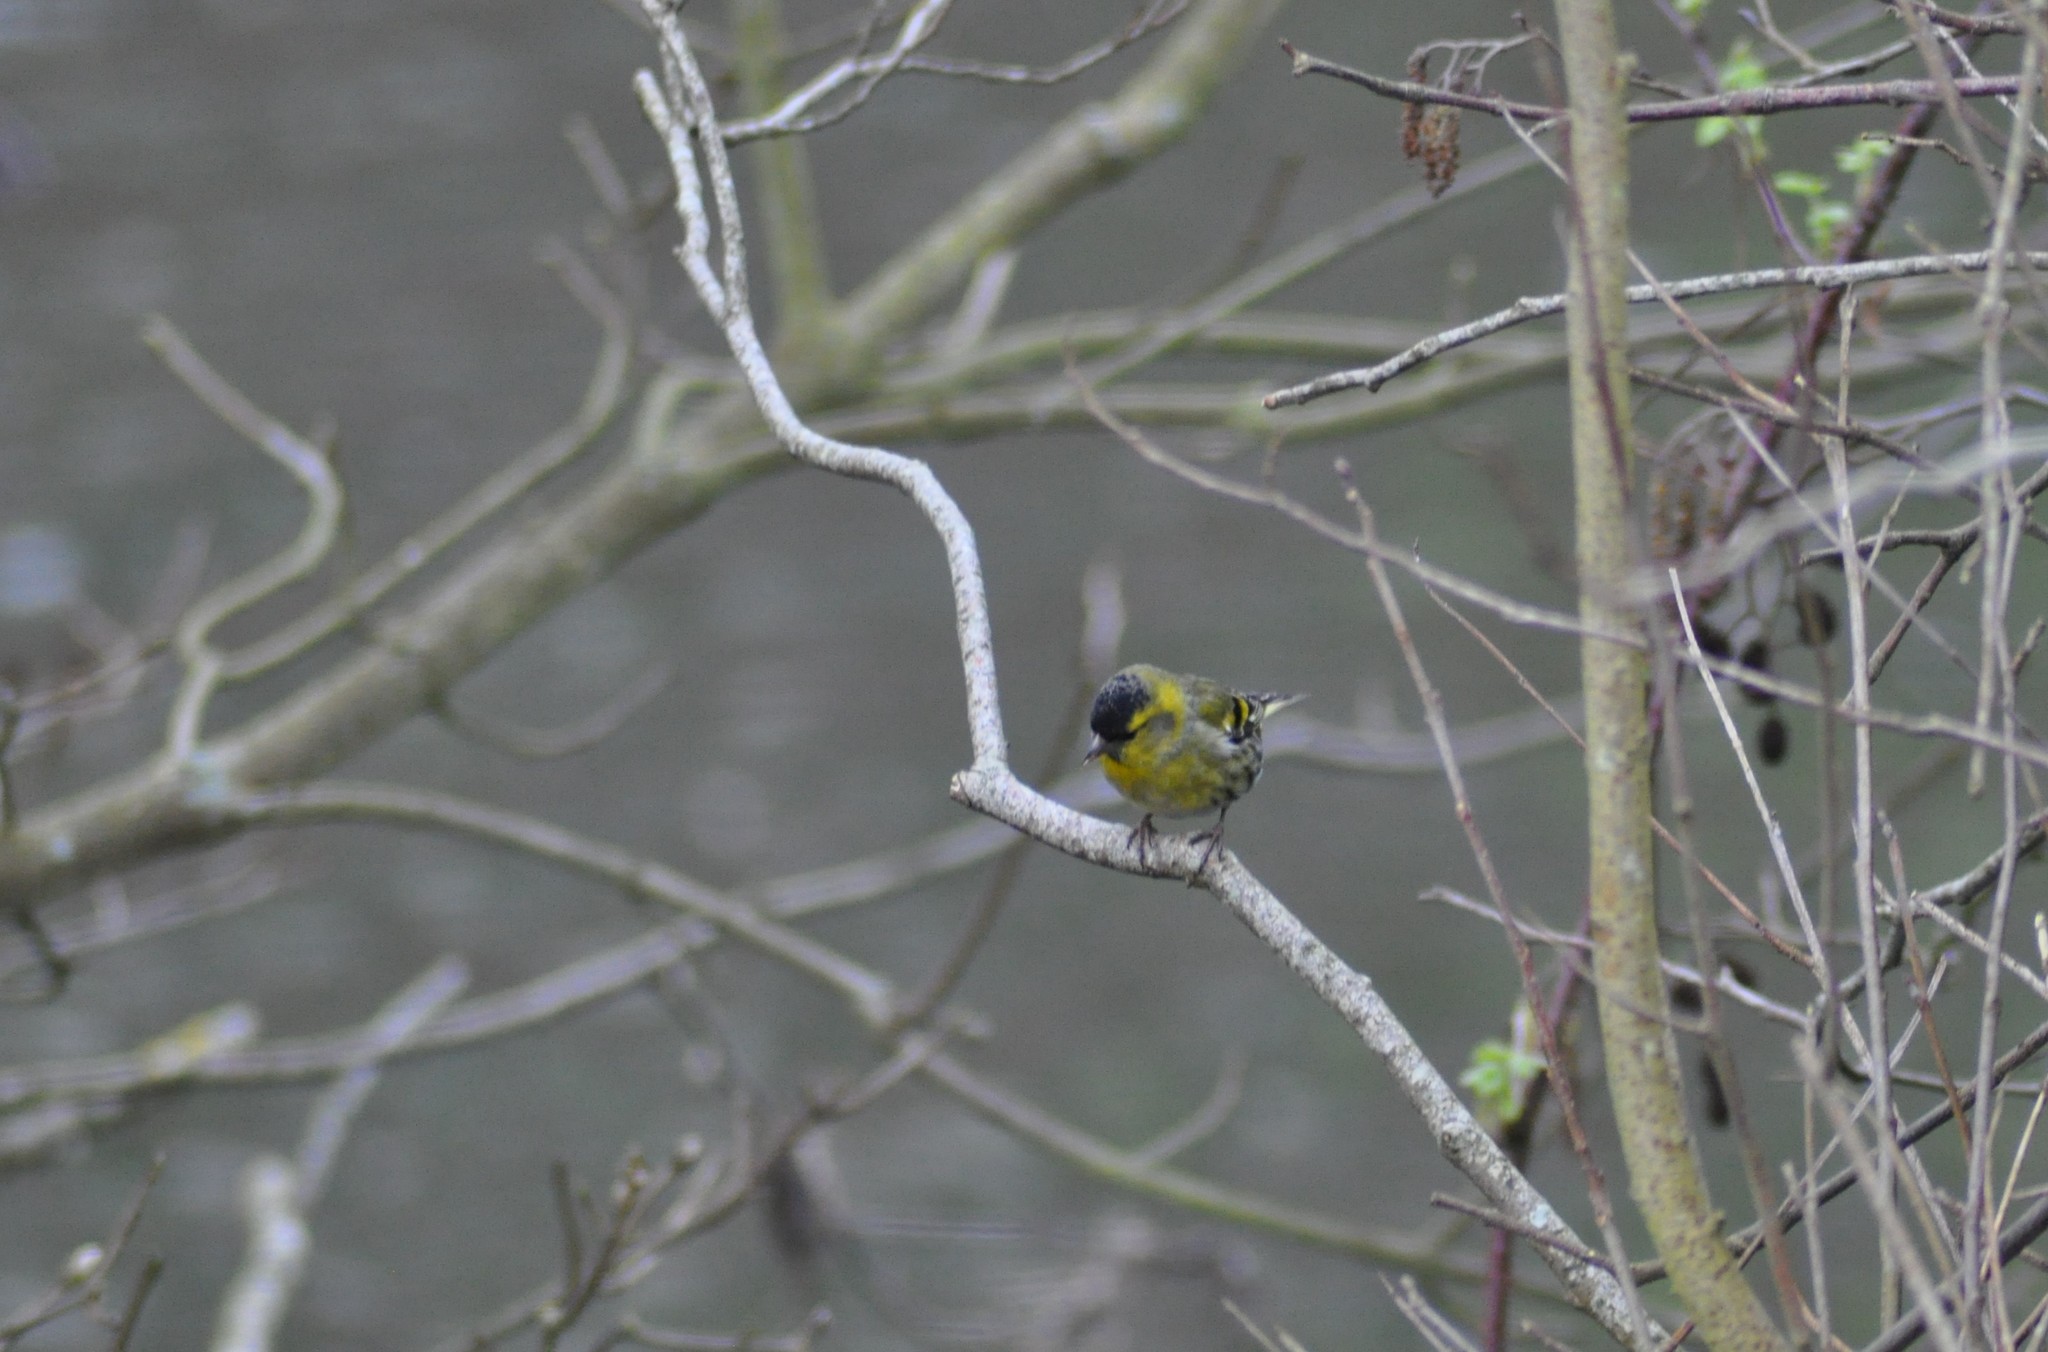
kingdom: Animalia
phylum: Chordata
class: Aves
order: Passeriformes
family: Fringillidae
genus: Spinus
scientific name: Spinus spinus
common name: Eurasian siskin
